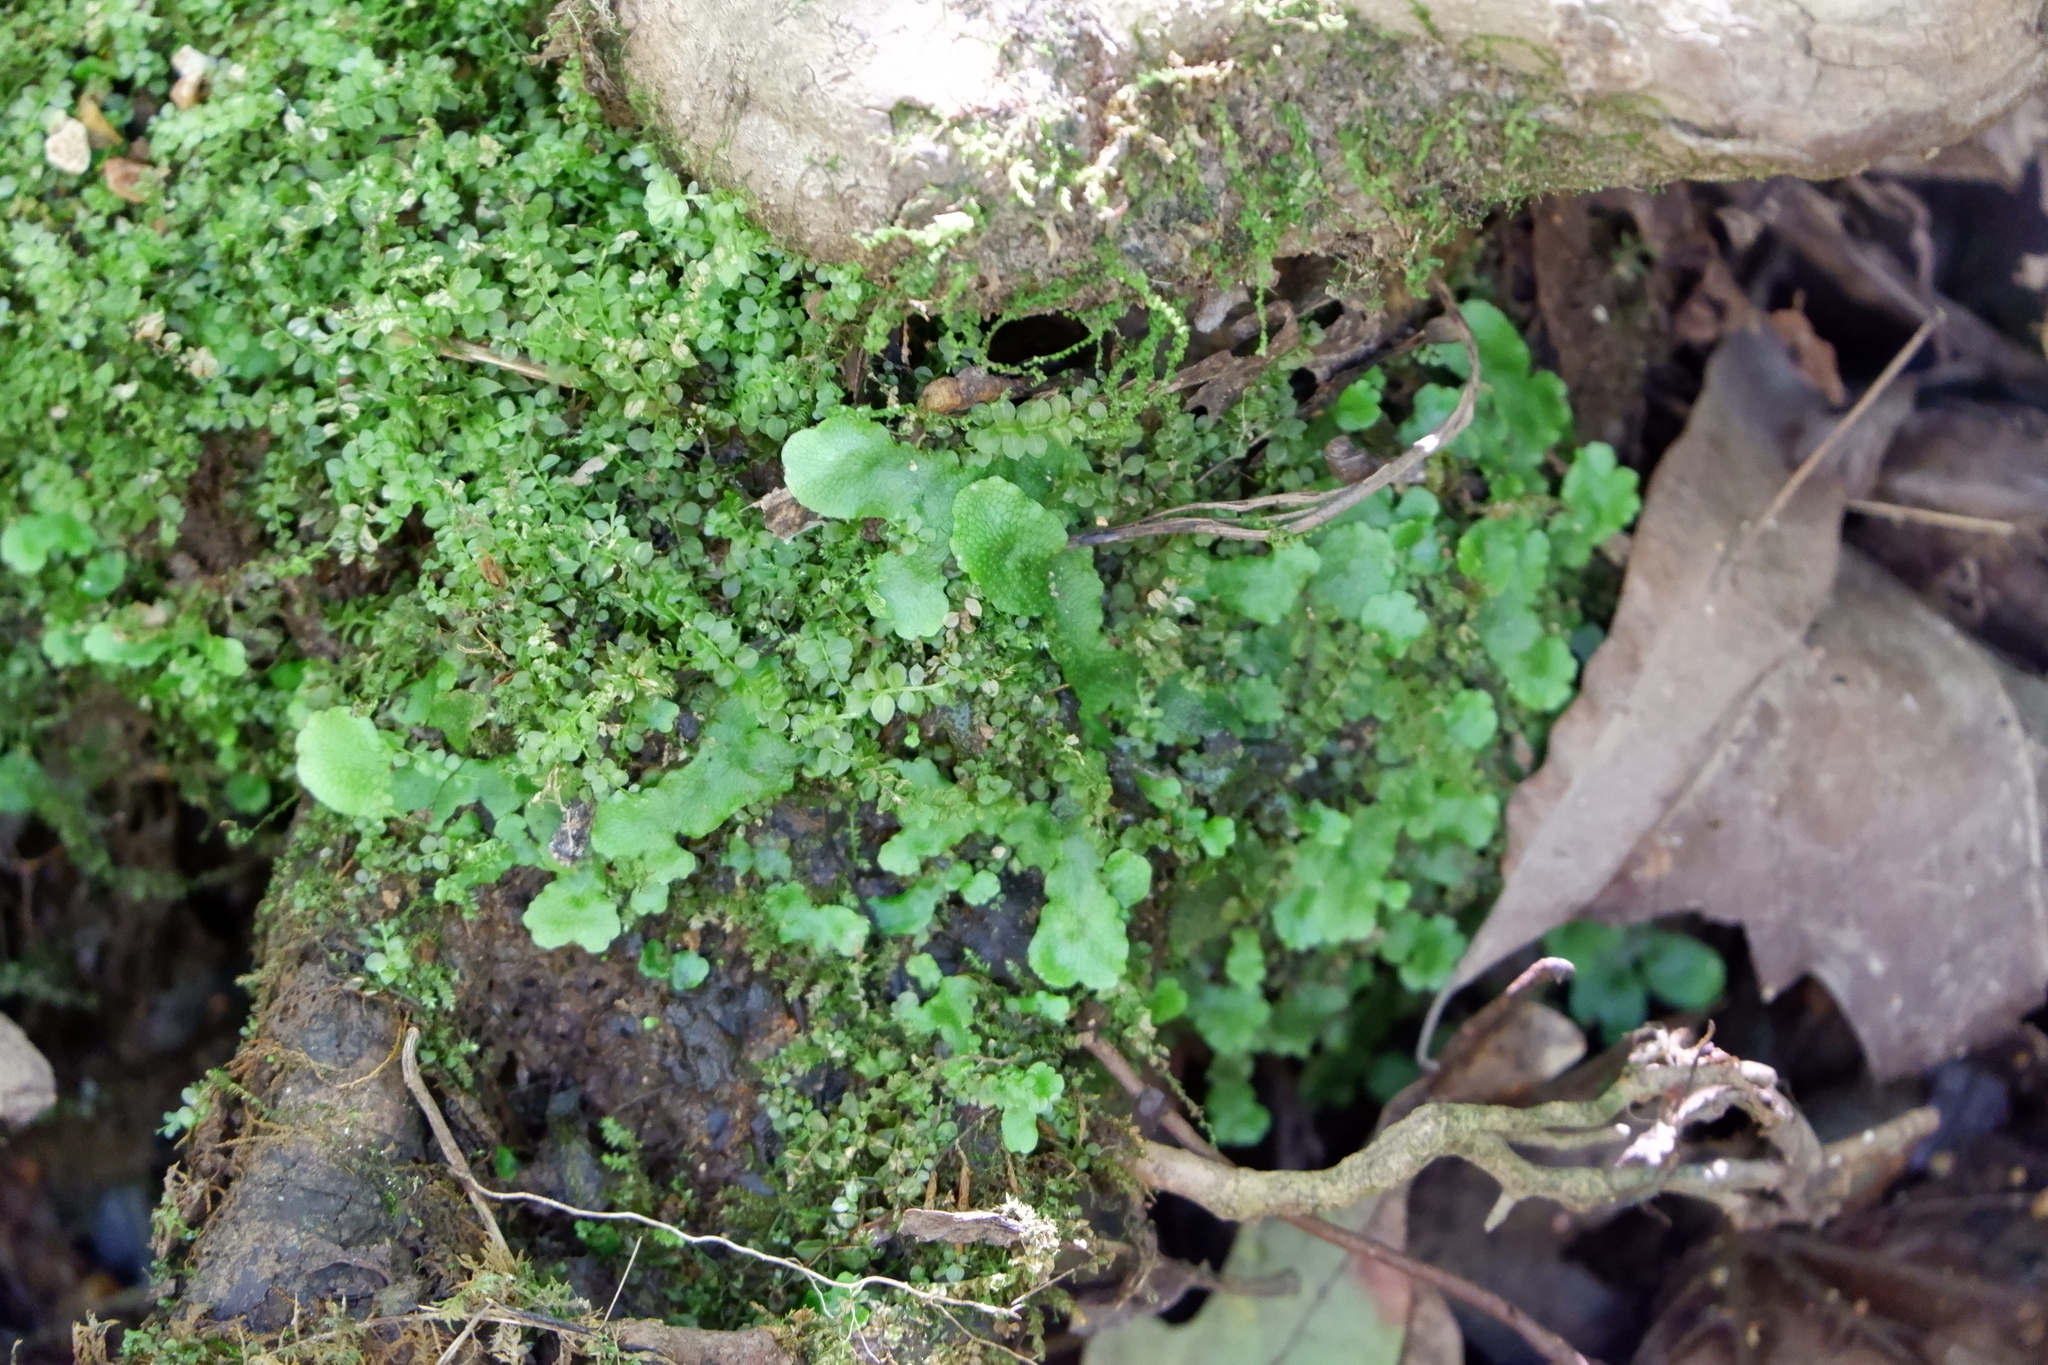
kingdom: Plantae
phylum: Marchantiophyta
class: Marchantiopsida
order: Marchantiales
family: Conocephalaceae
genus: Conocephalum
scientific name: Conocephalum salebrosum
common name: Cat-tongue liverwort
